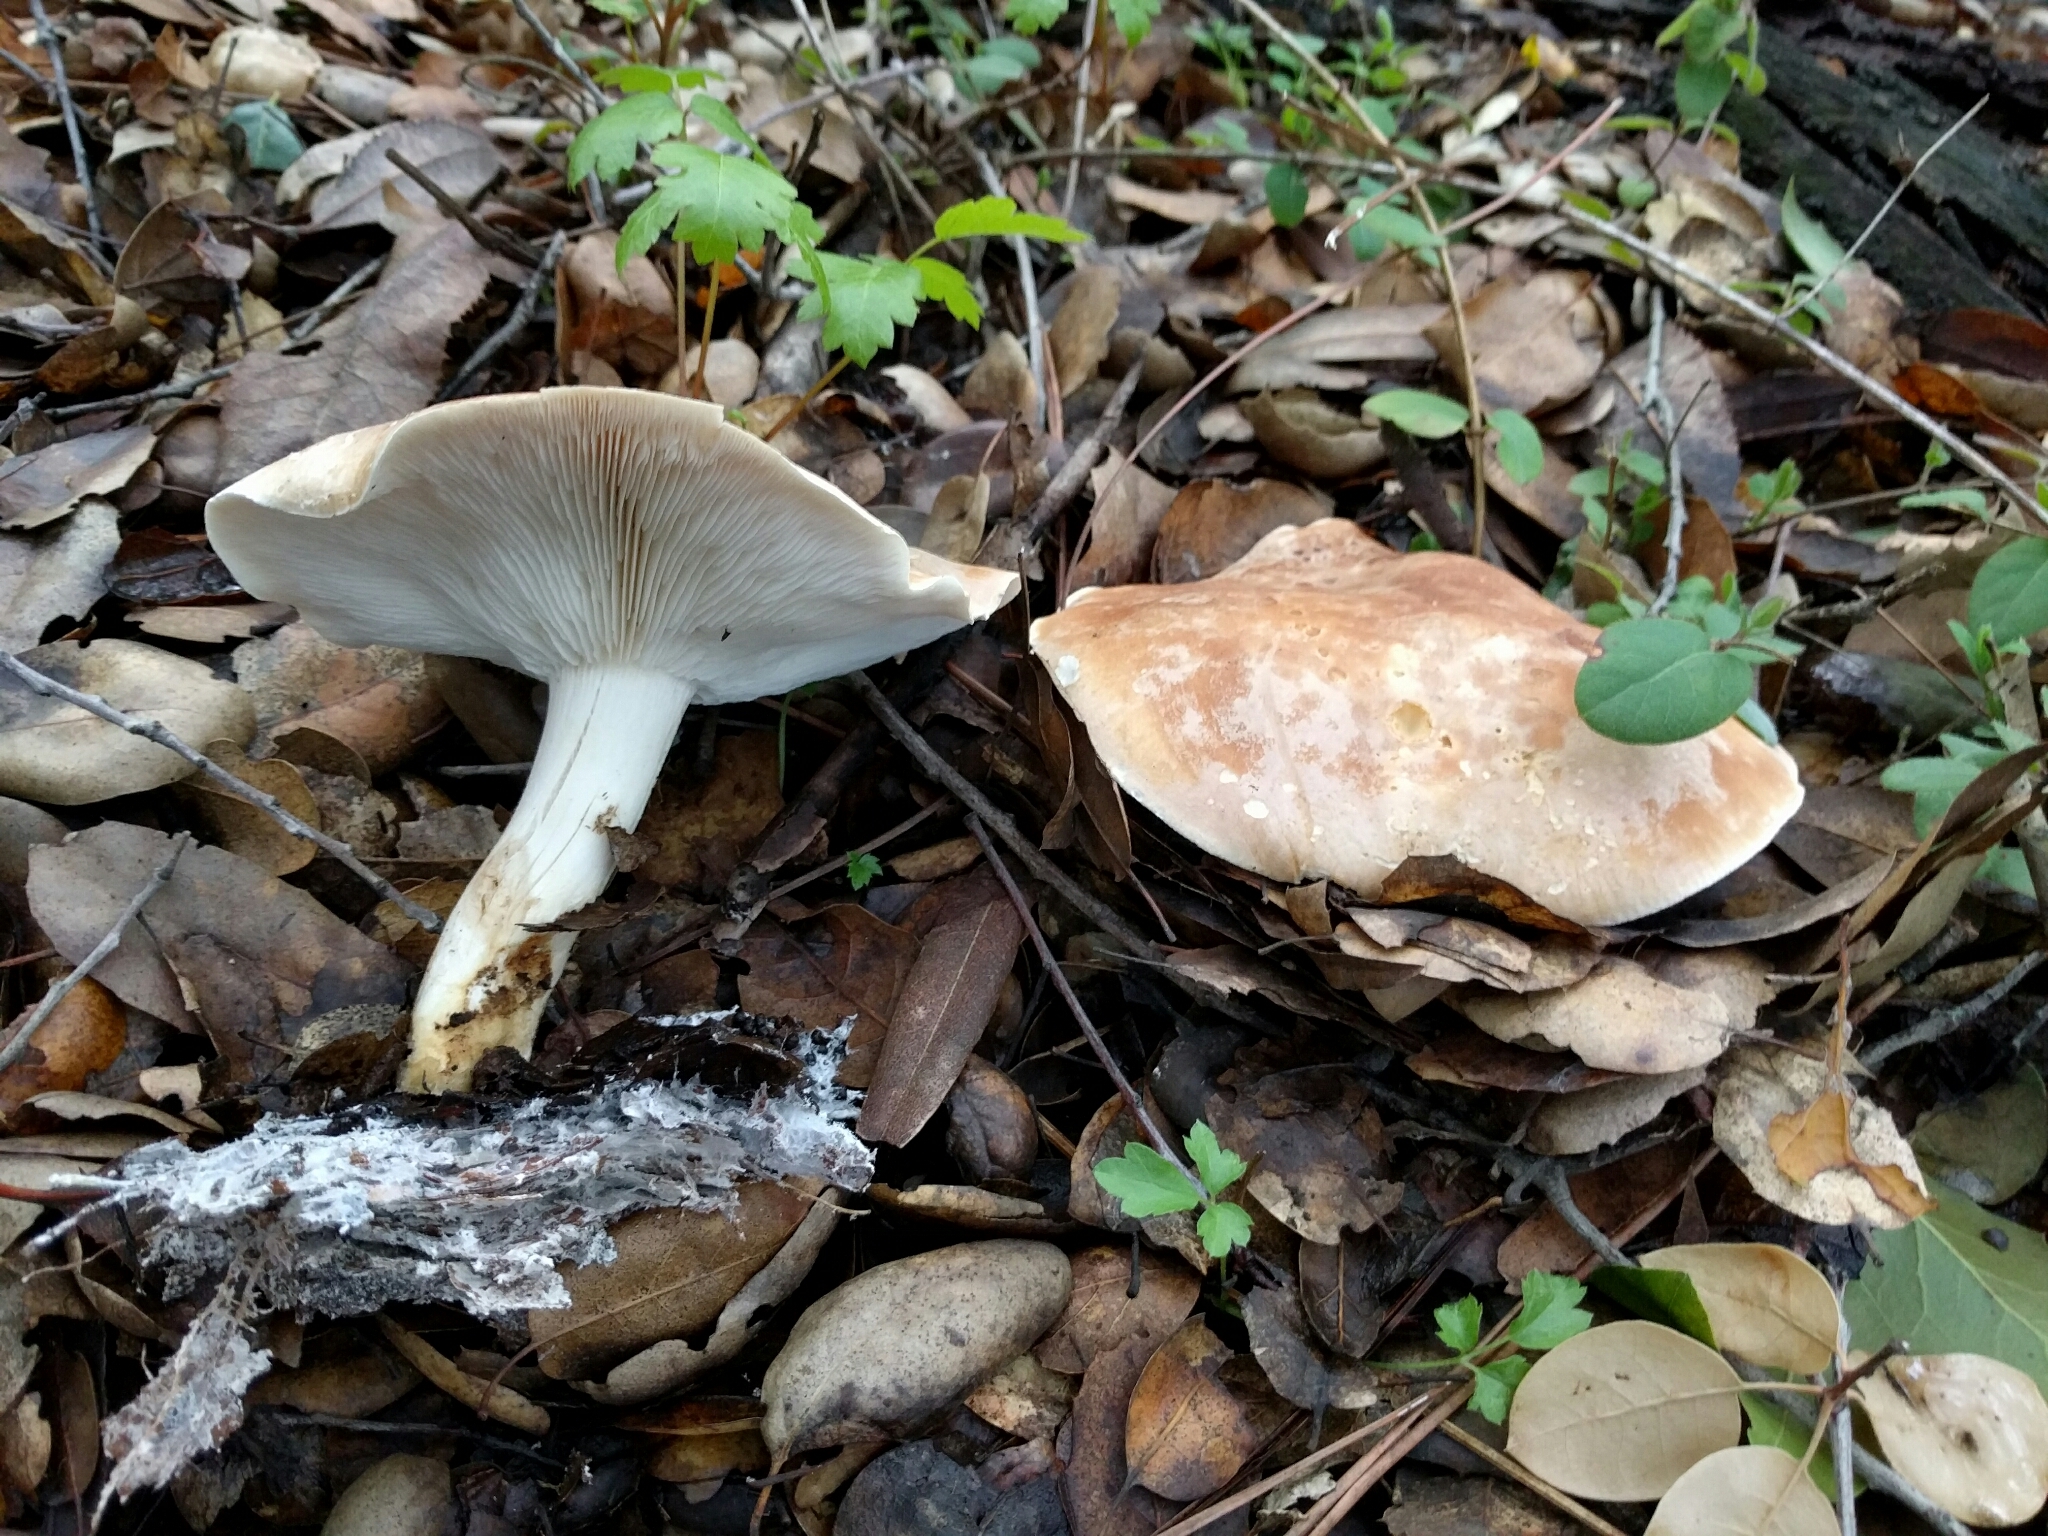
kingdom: Fungi
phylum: Basidiomycota
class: Agaricomycetes
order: Agaricales
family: Tricholomataceae
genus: Leucopaxillus
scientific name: Leucopaxillus gentianeus
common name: Bitter funnel
